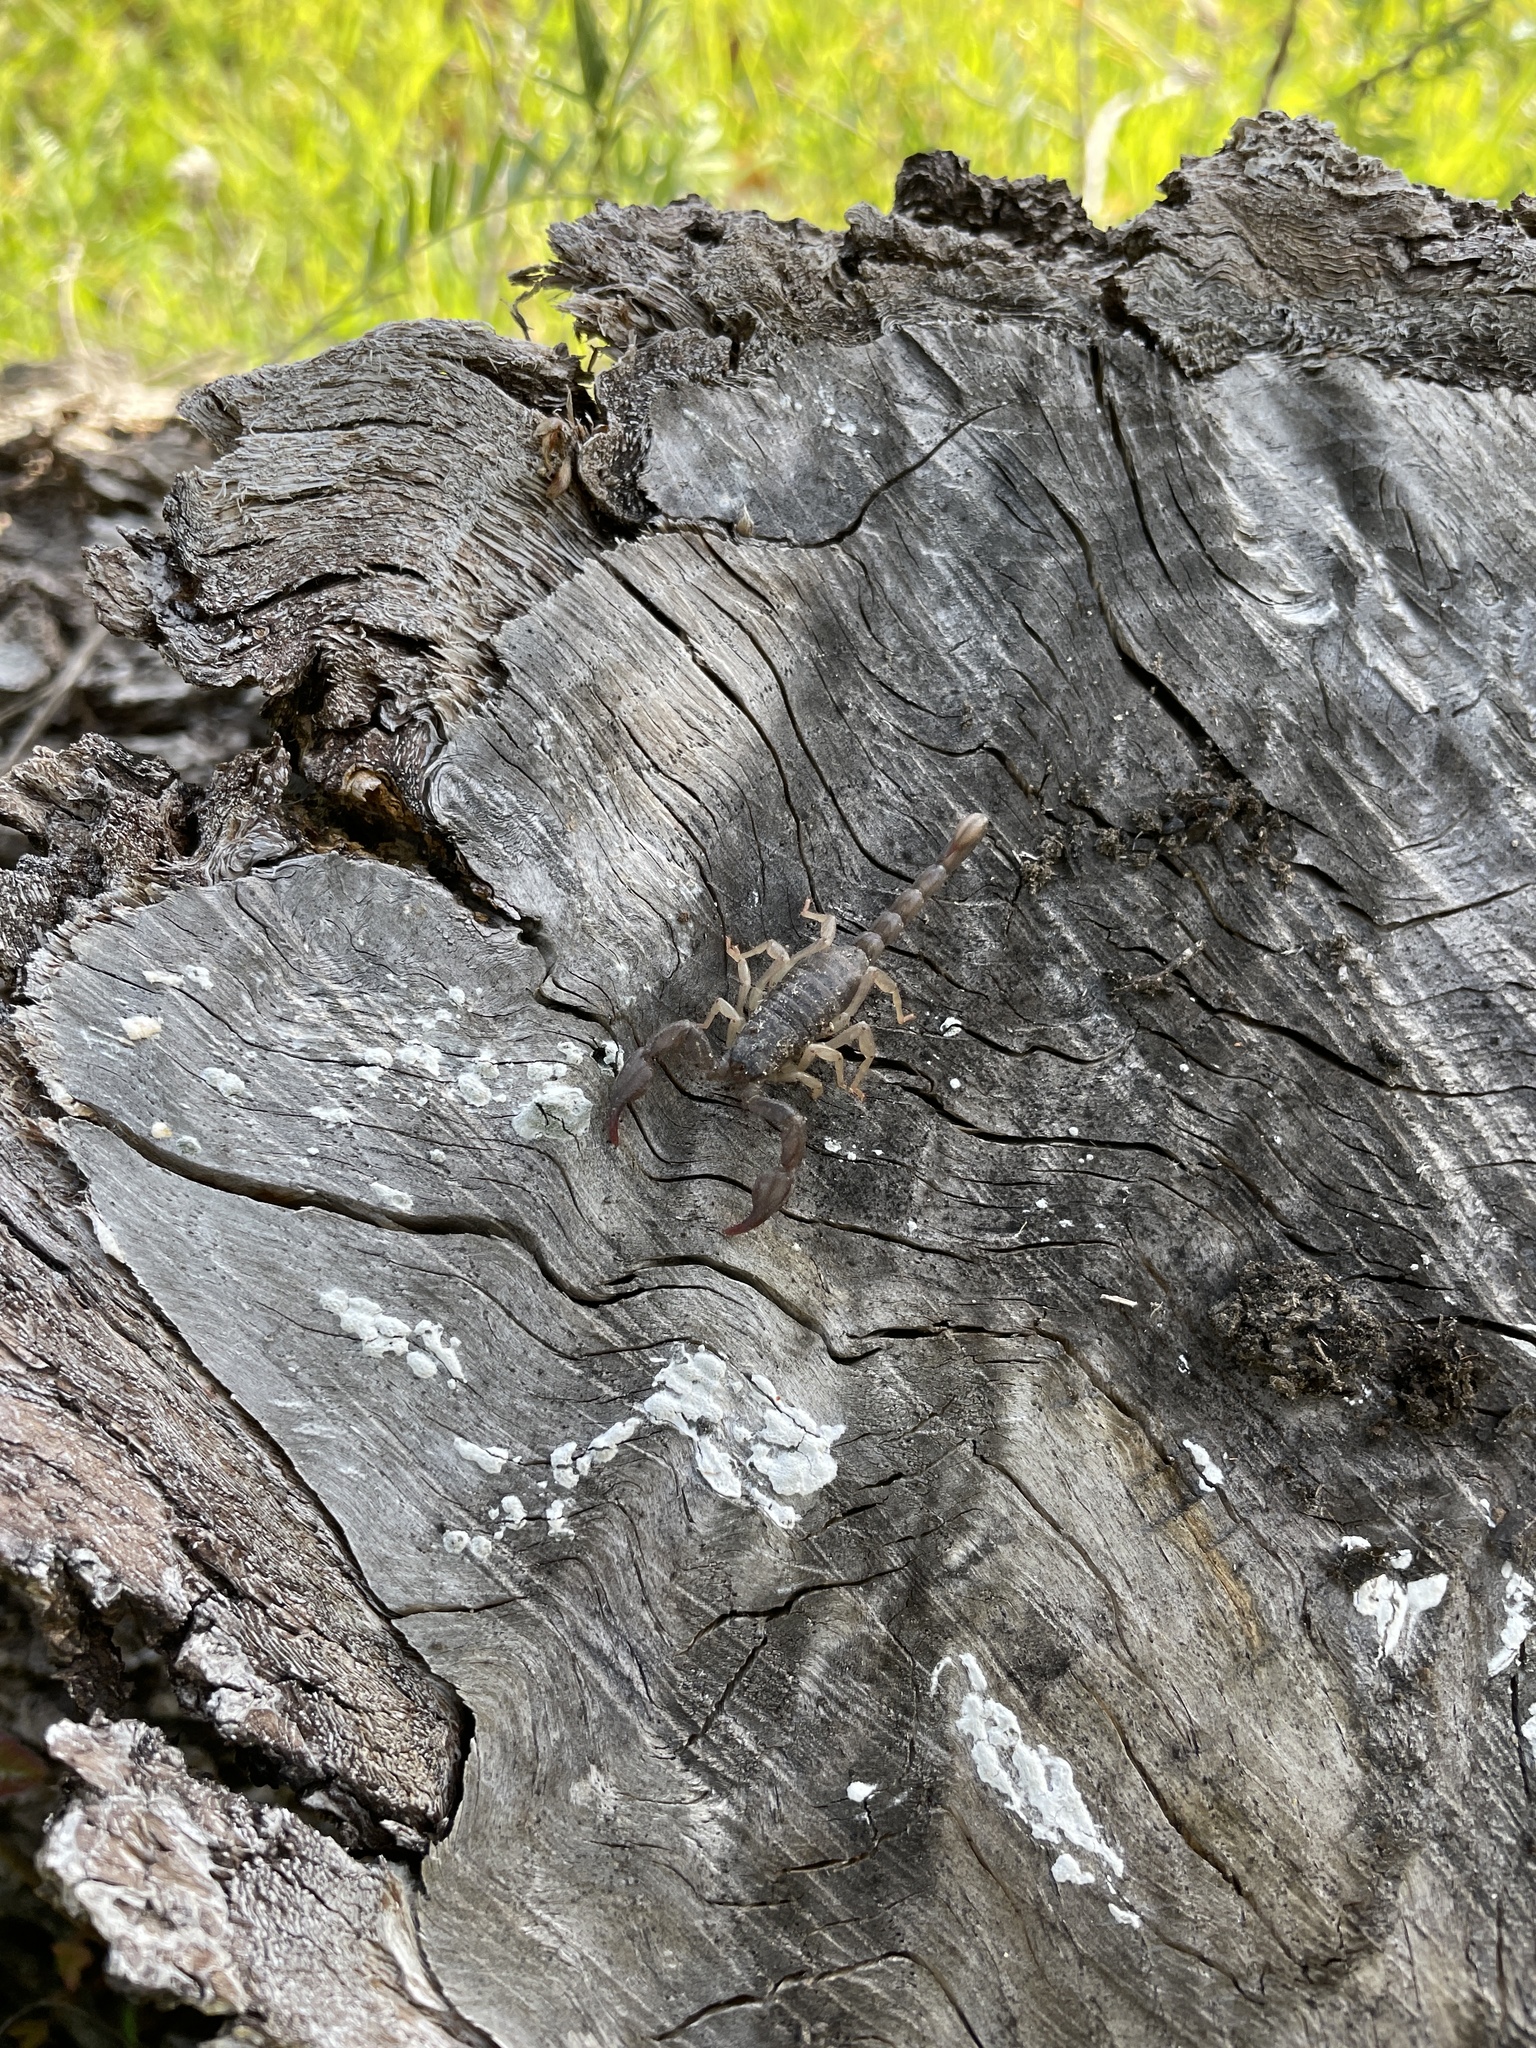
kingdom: Animalia
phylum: Arthropoda
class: Arachnida
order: Scorpiones
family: Chactidae
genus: Uroctonus
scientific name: Uroctonus mordax
